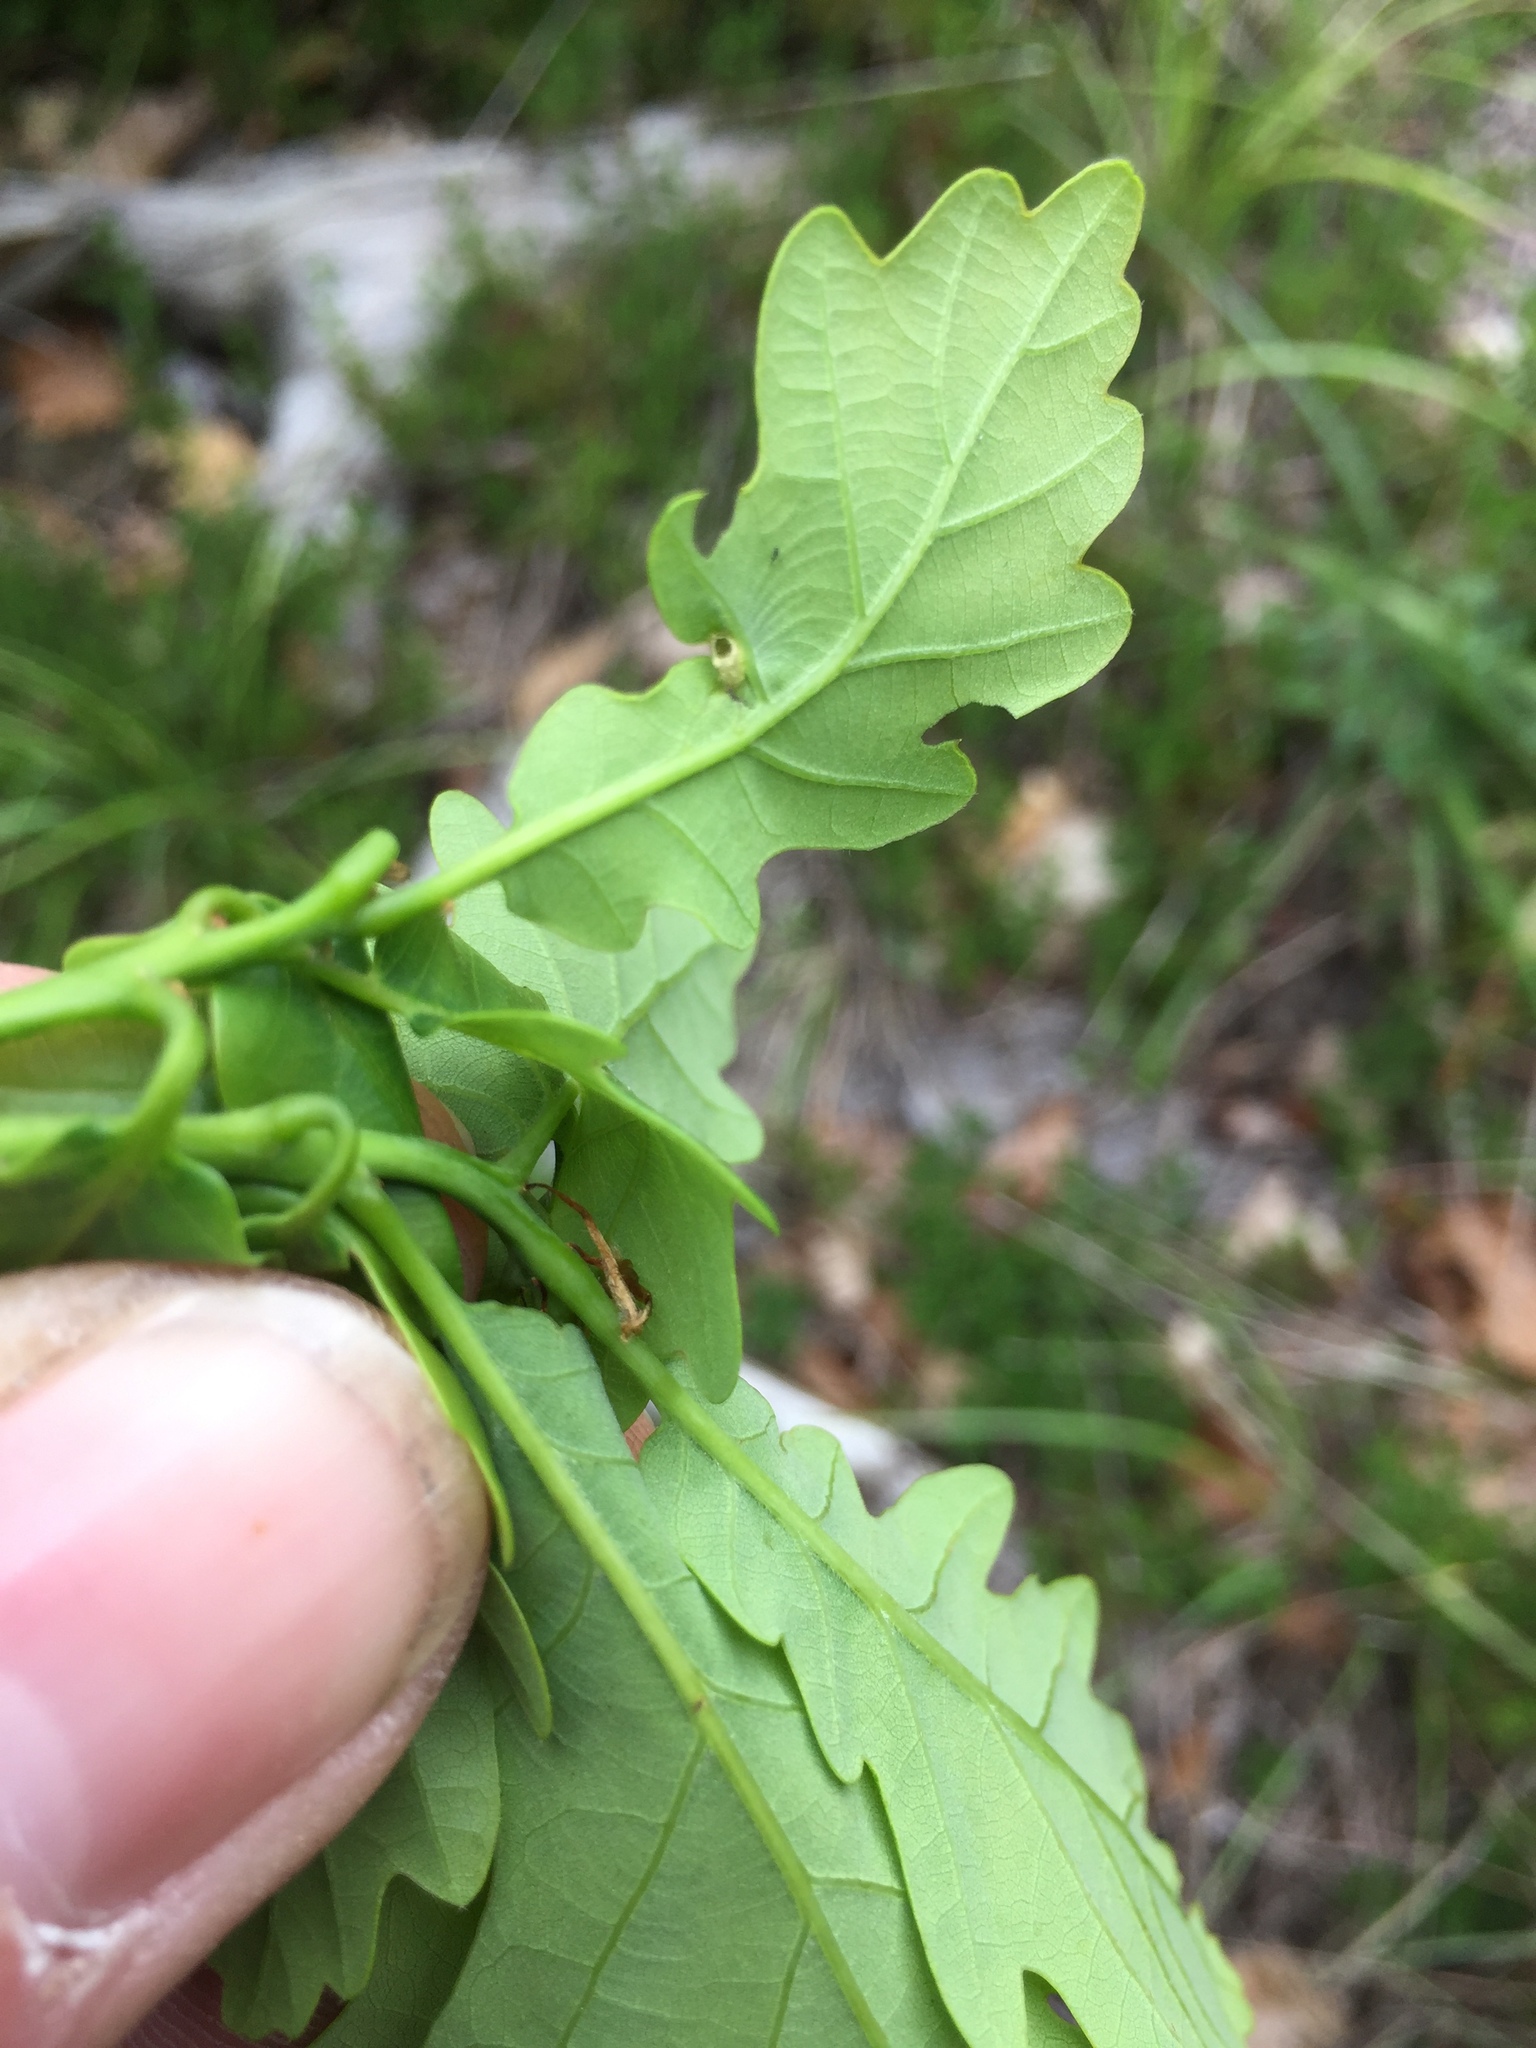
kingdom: Animalia
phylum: Arthropoda
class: Insecta
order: Hymenoptera
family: Cynipidae
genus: Neuroterus
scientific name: Neuroterus albipes
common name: Smooth spangle gall
